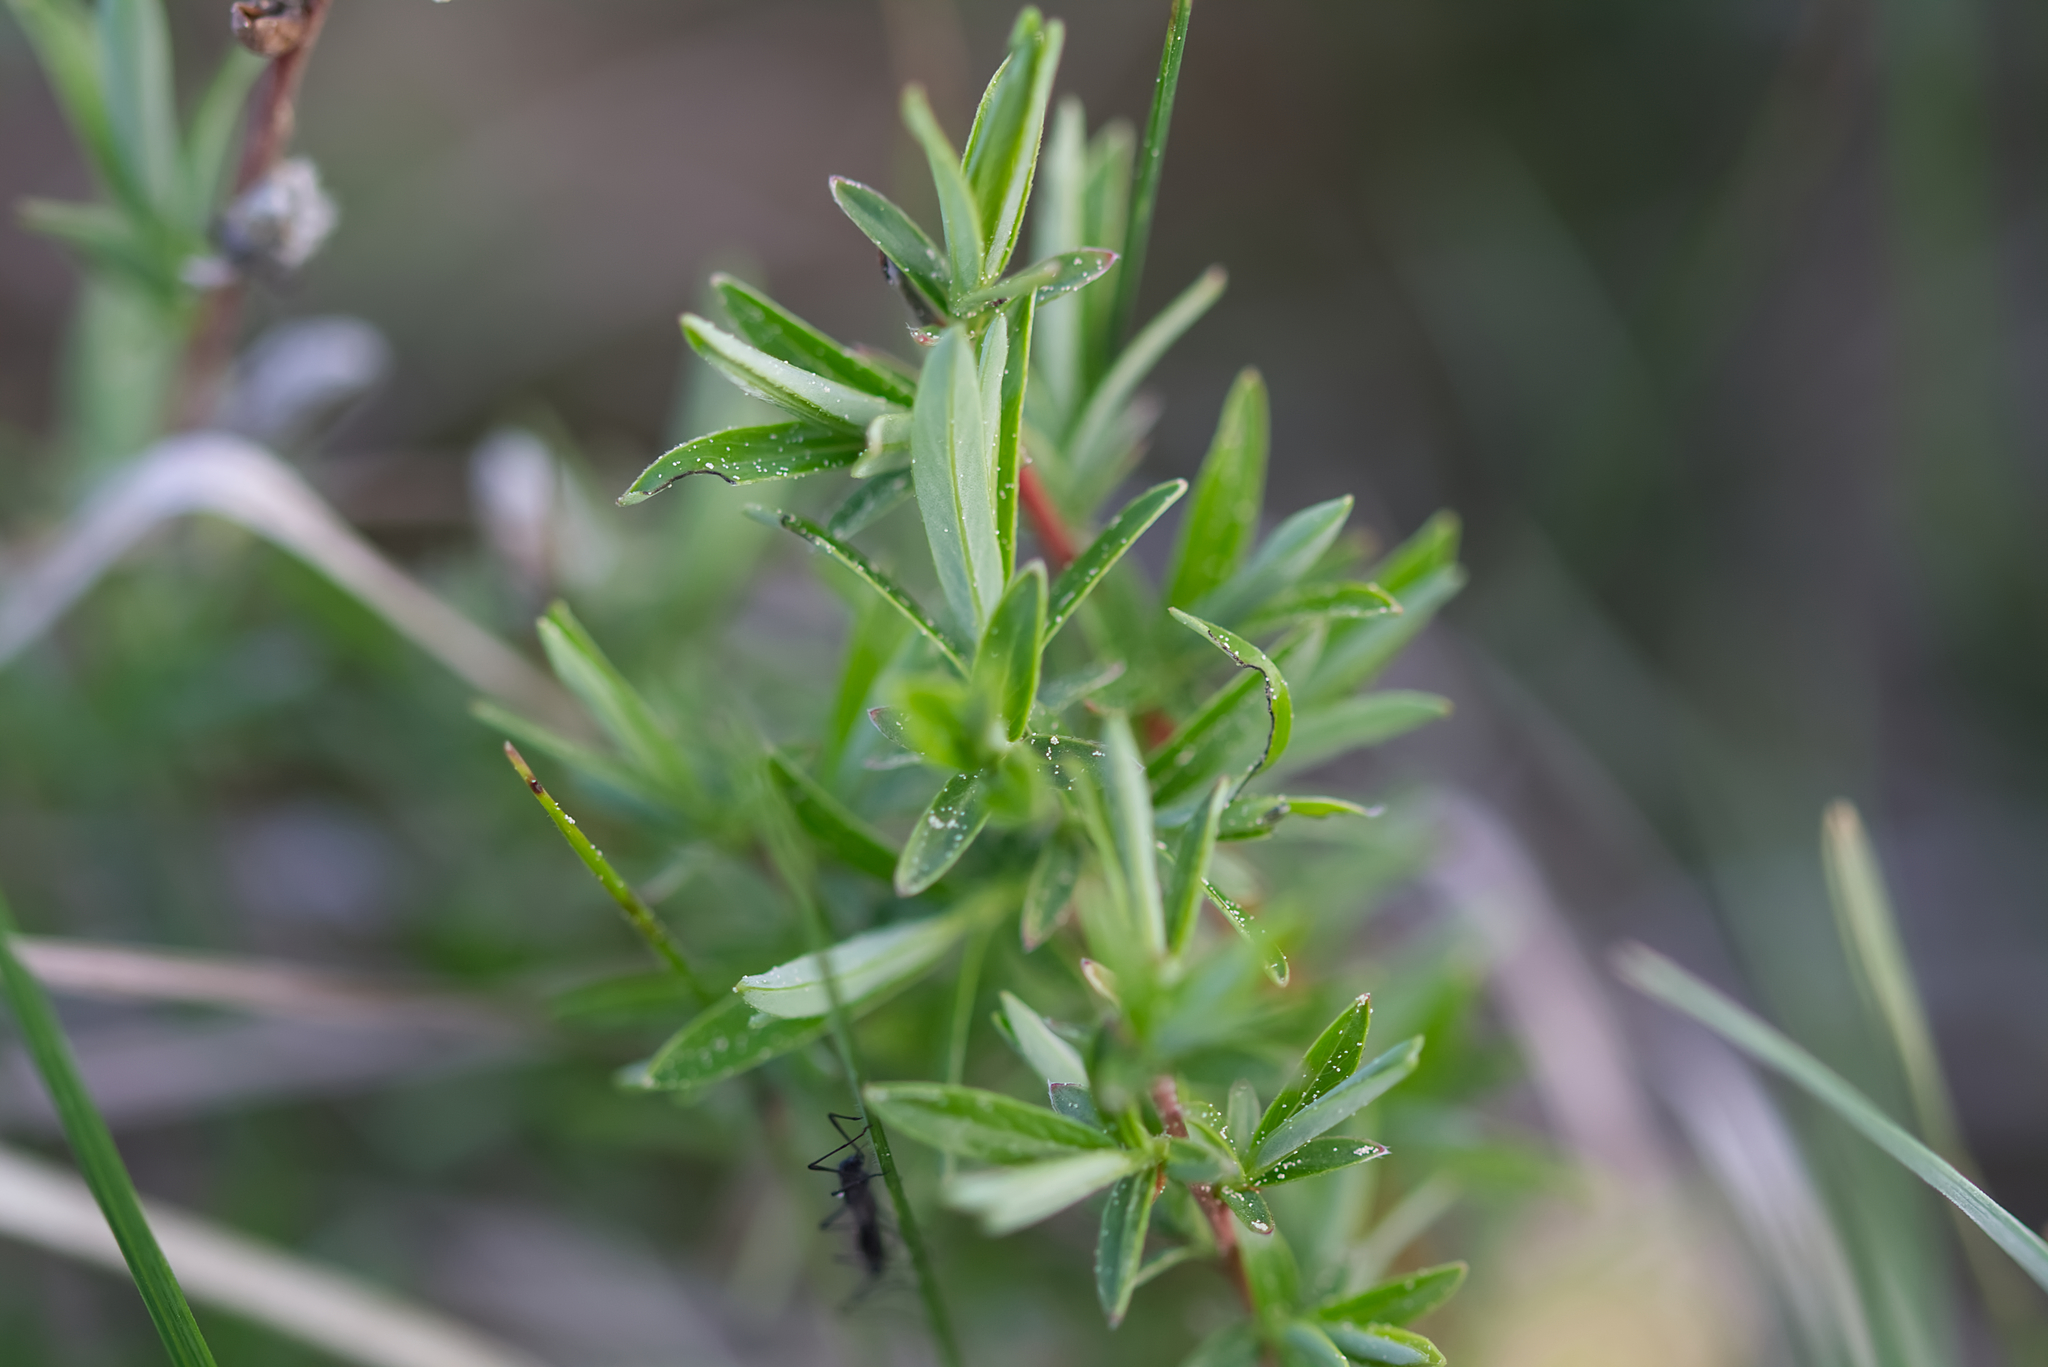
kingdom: Plantae
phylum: Tracheophyta
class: Magnoliopsida
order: Malpighiales
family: Salicaceae
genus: Salix
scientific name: Salix rosmarinifolia
